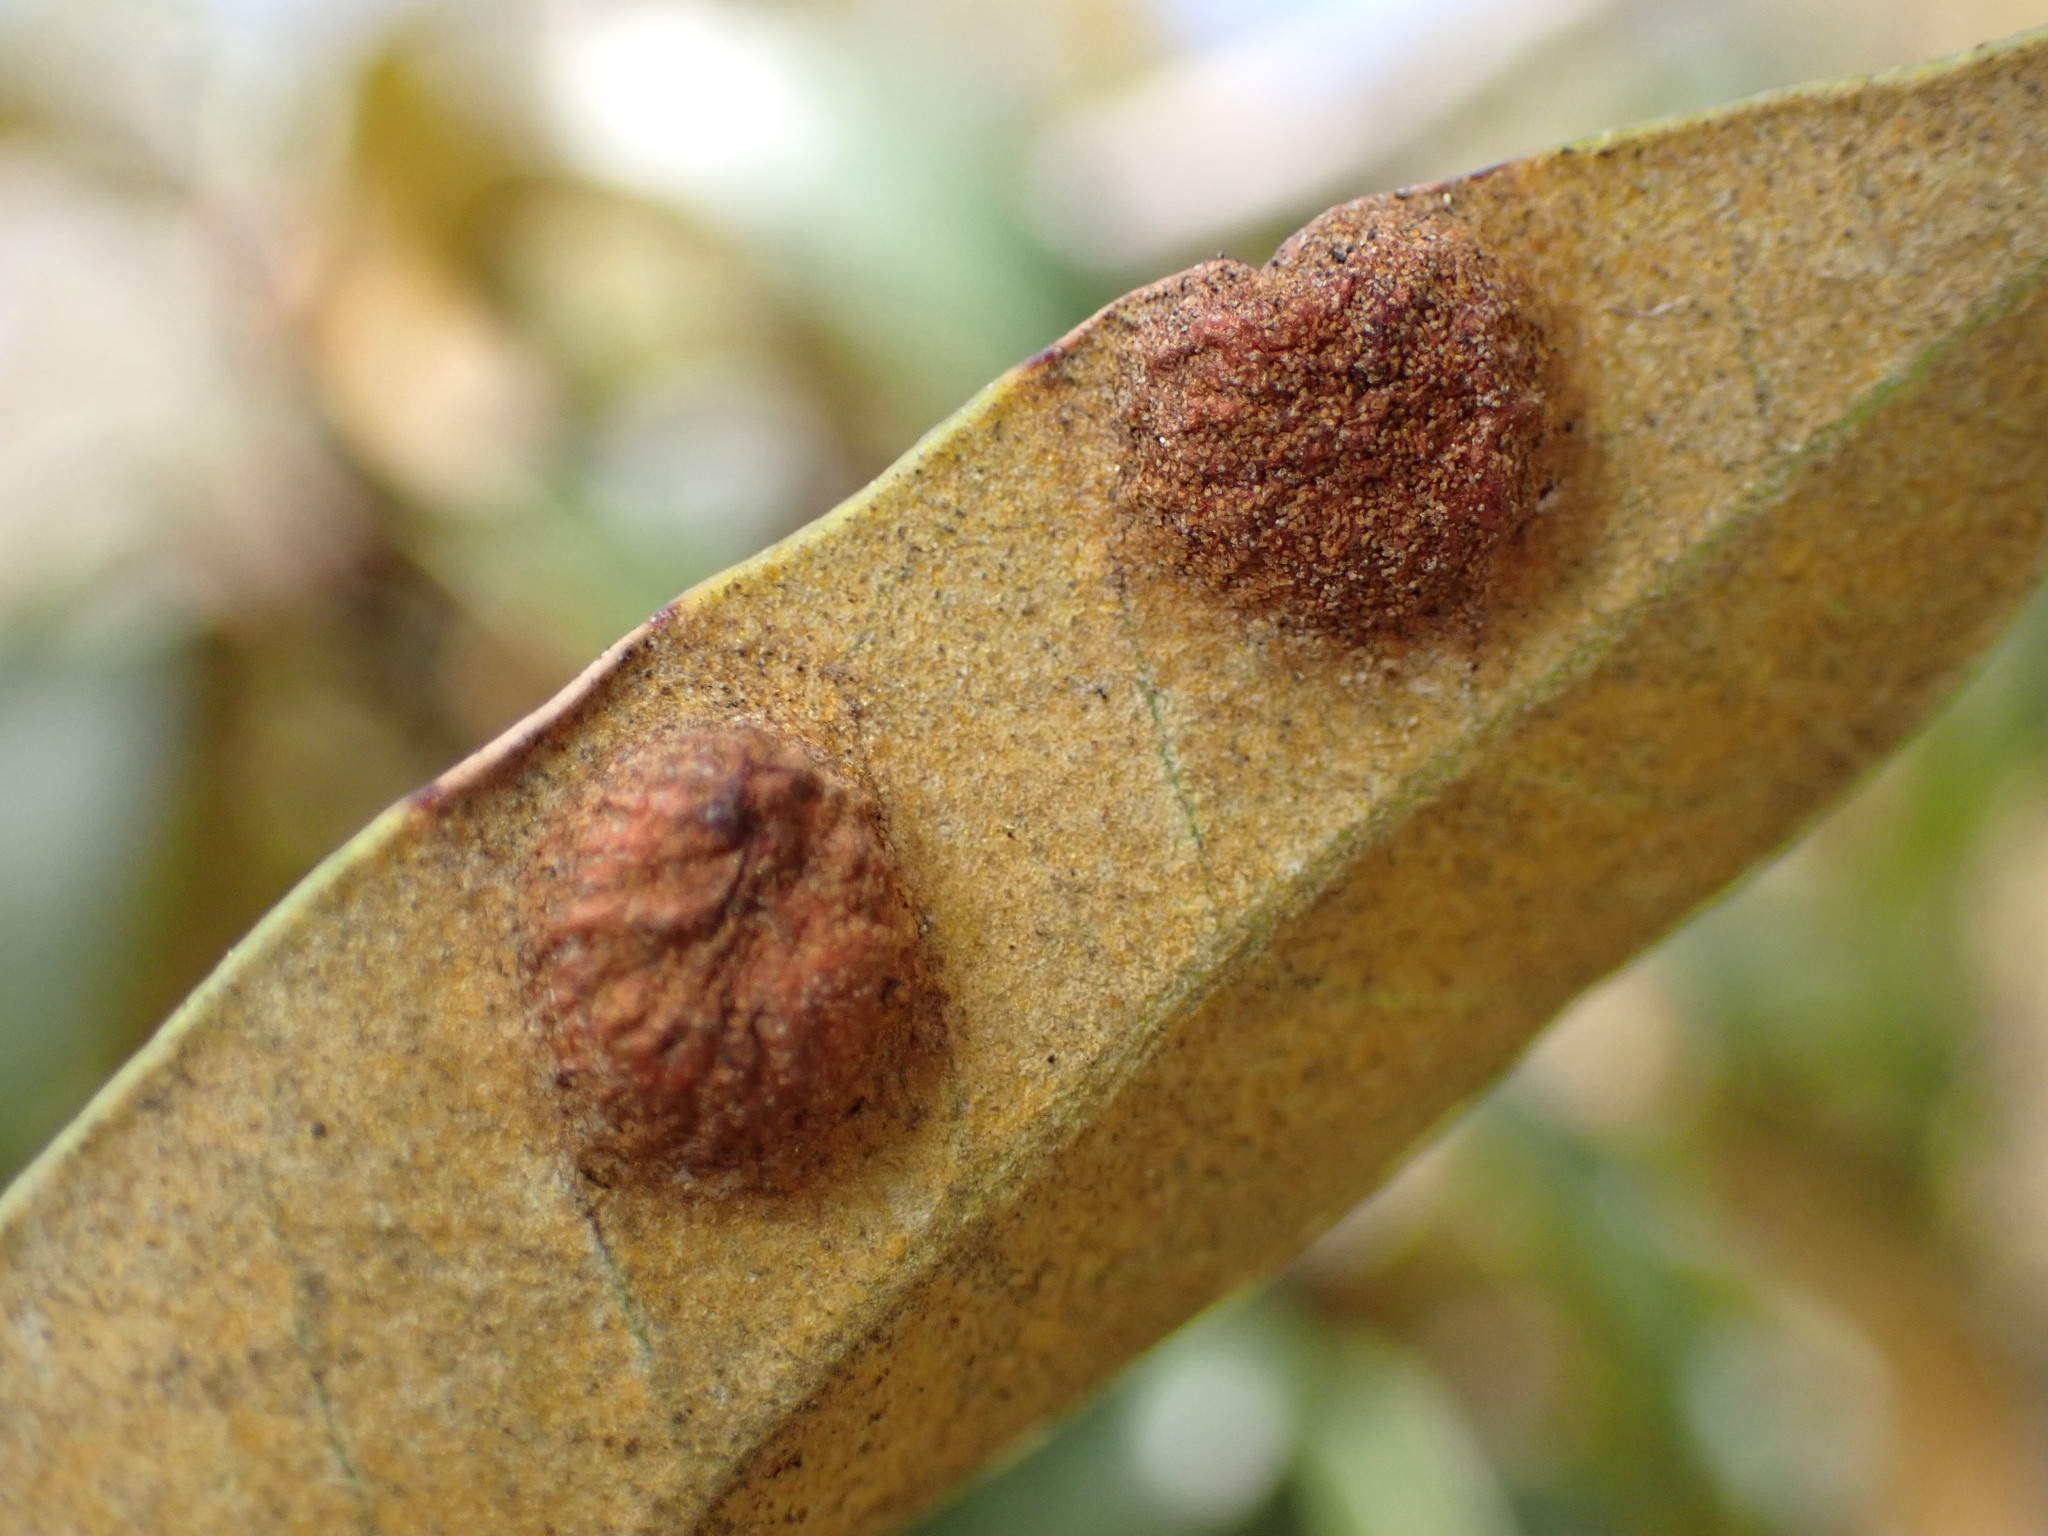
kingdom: Animalia
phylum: Arthropoda
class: Insecta
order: Hymenoptera
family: Cynipidae
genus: Dryocosmus
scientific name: Dryocosmus juliae
